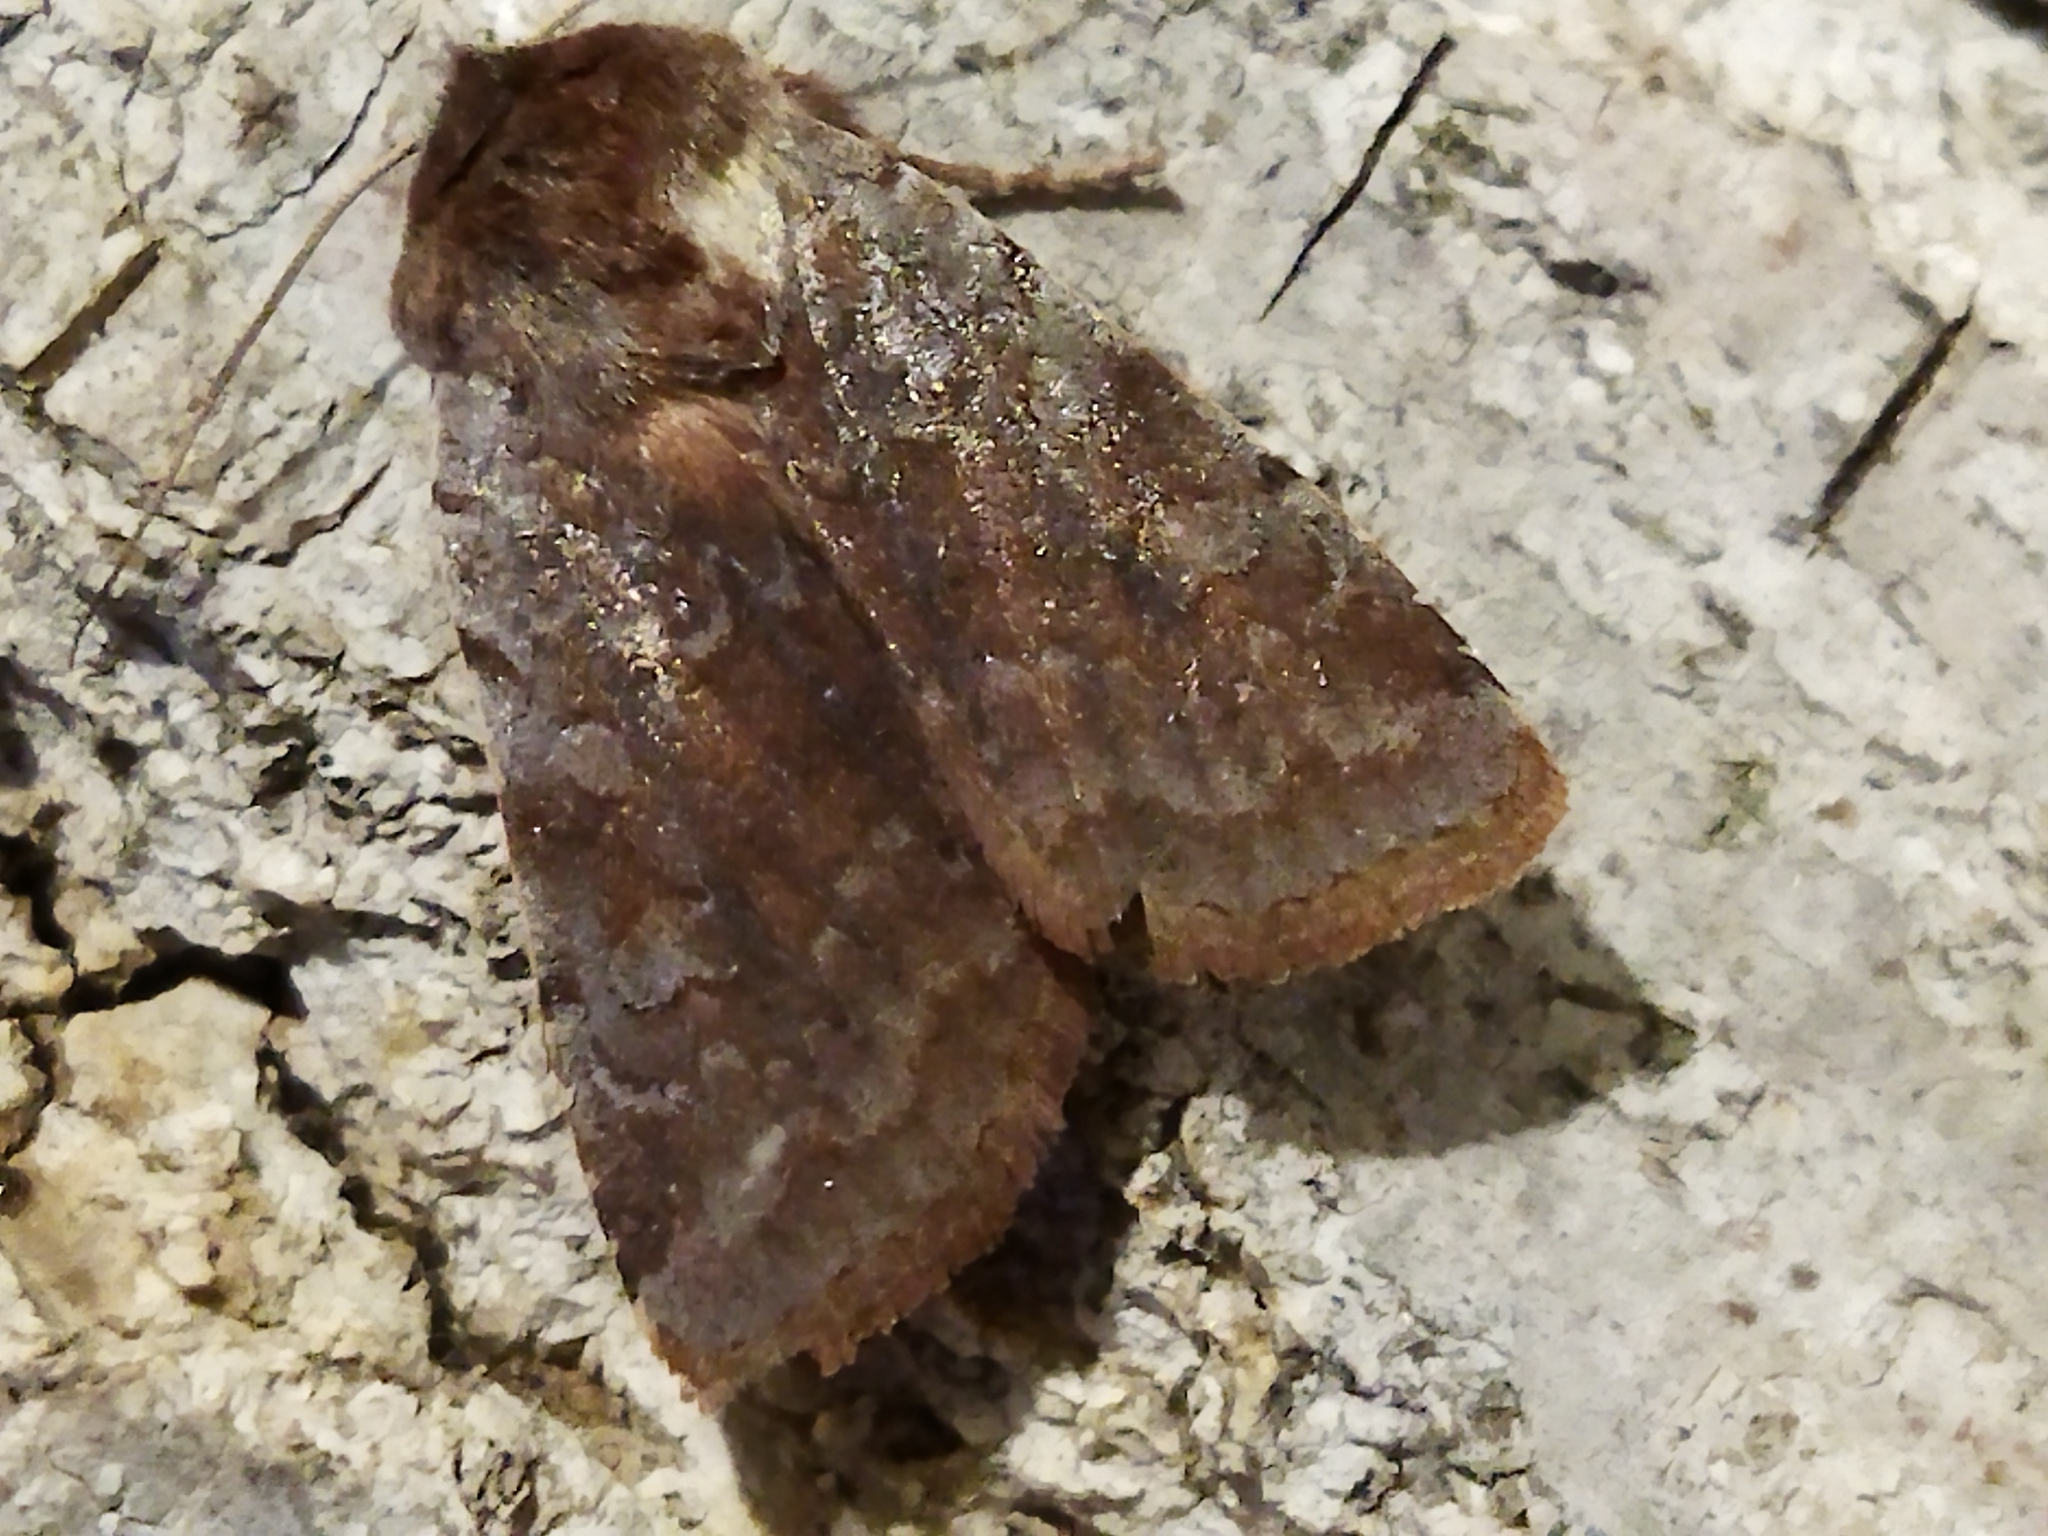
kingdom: Animalia
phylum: Arthropoda
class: Insecta
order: Lepidoptera
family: Noctuidae
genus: Cerastis
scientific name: Cerastis rubricosa
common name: Red chestnut
